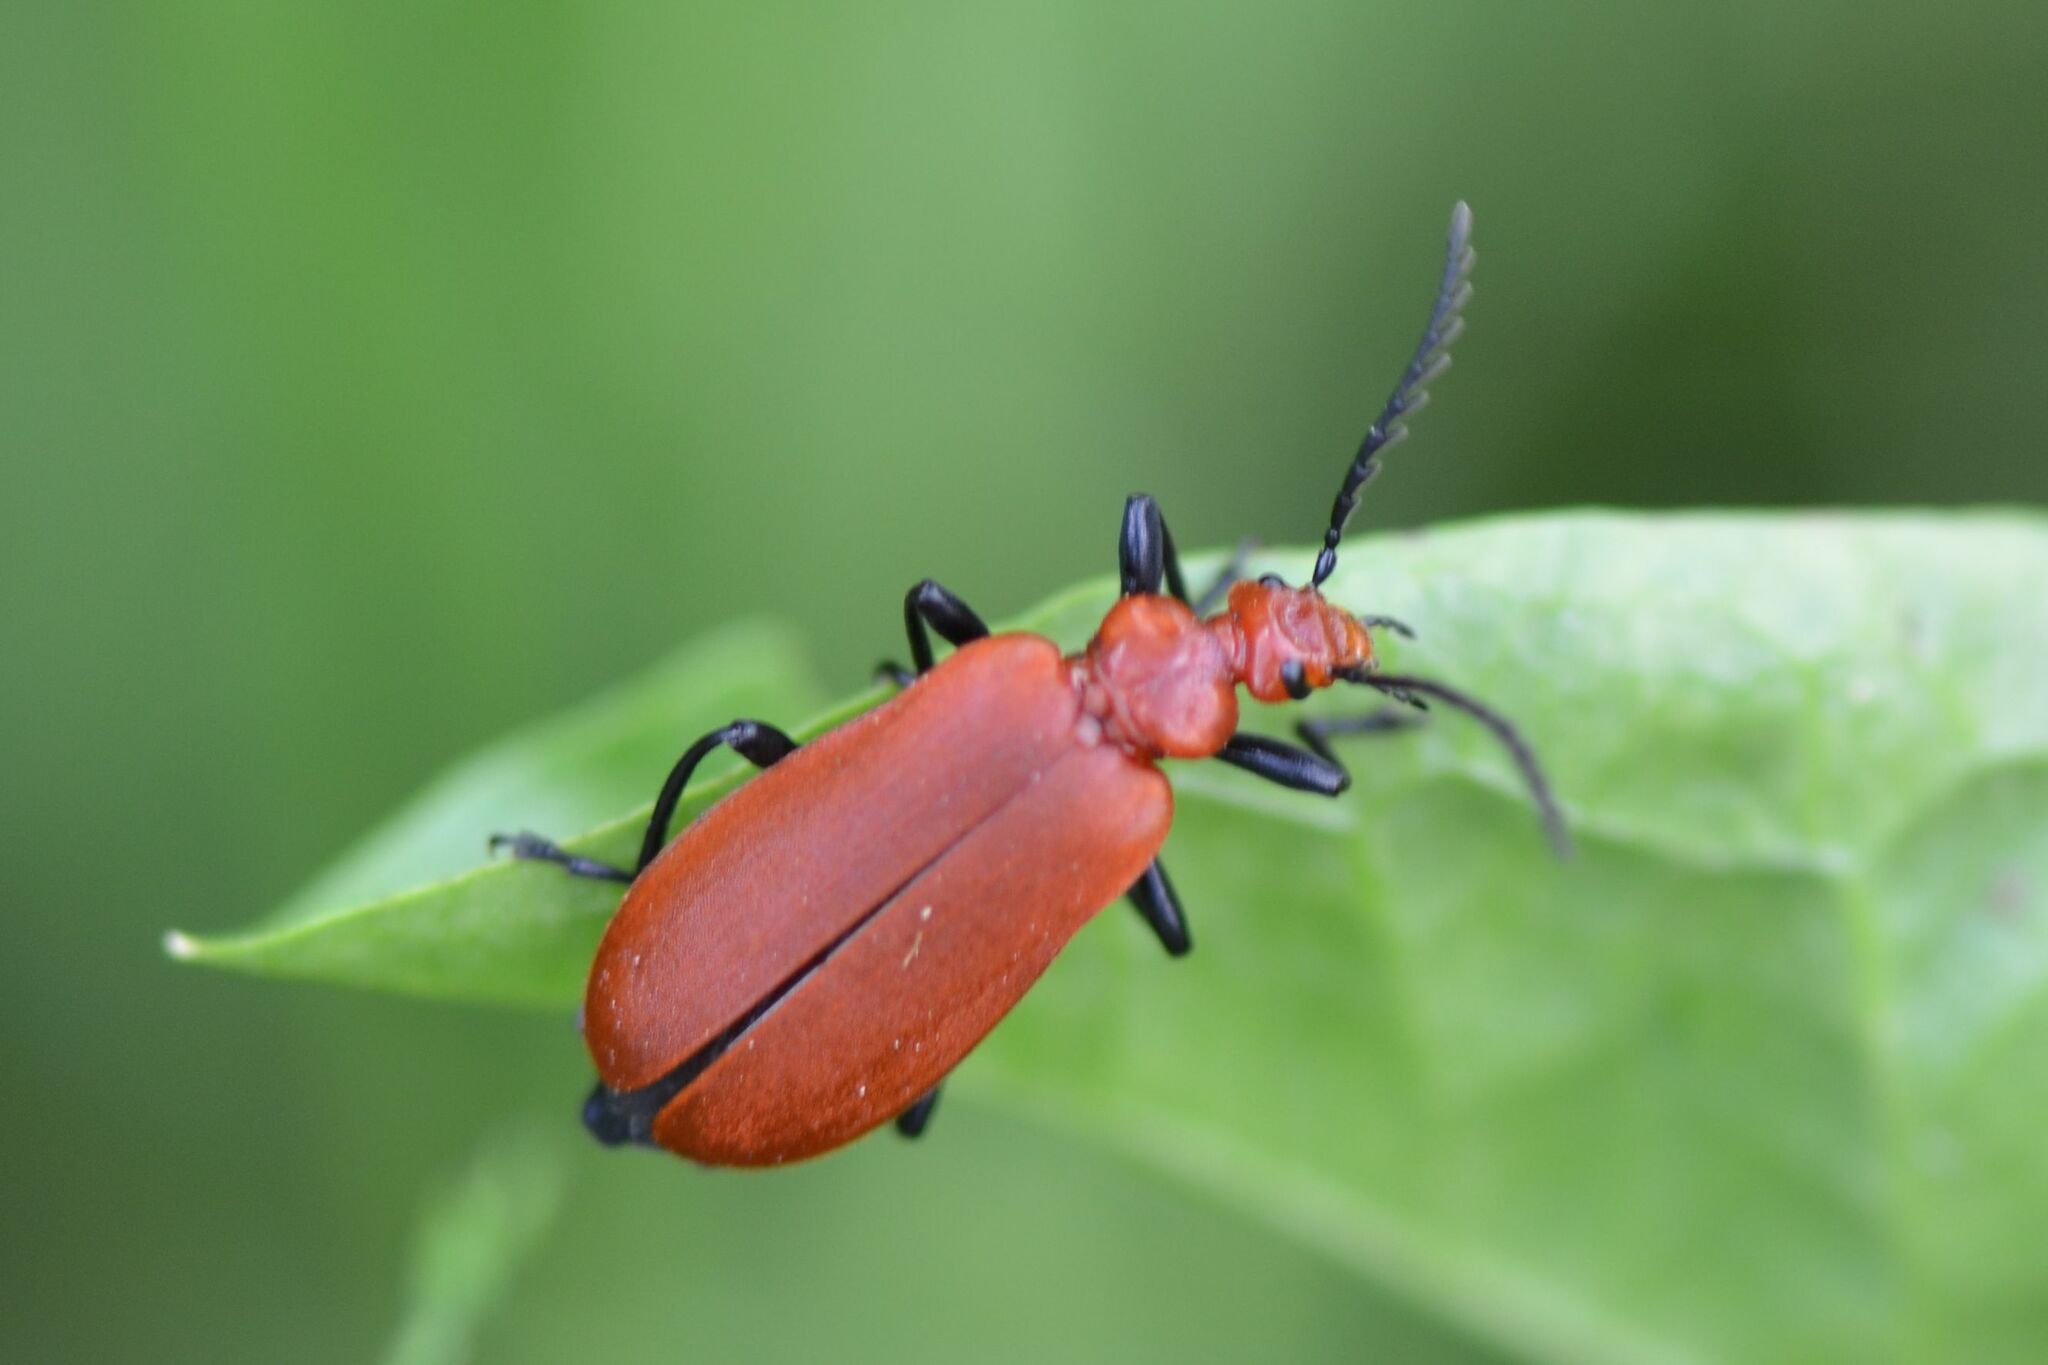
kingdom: Animalia
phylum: Arthropoda
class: Insecta
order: Coleoptera
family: Pyrochroidae
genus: Pyrochroa
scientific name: Pyrochroa serraticornis
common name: Red-headed cardinal beetle
